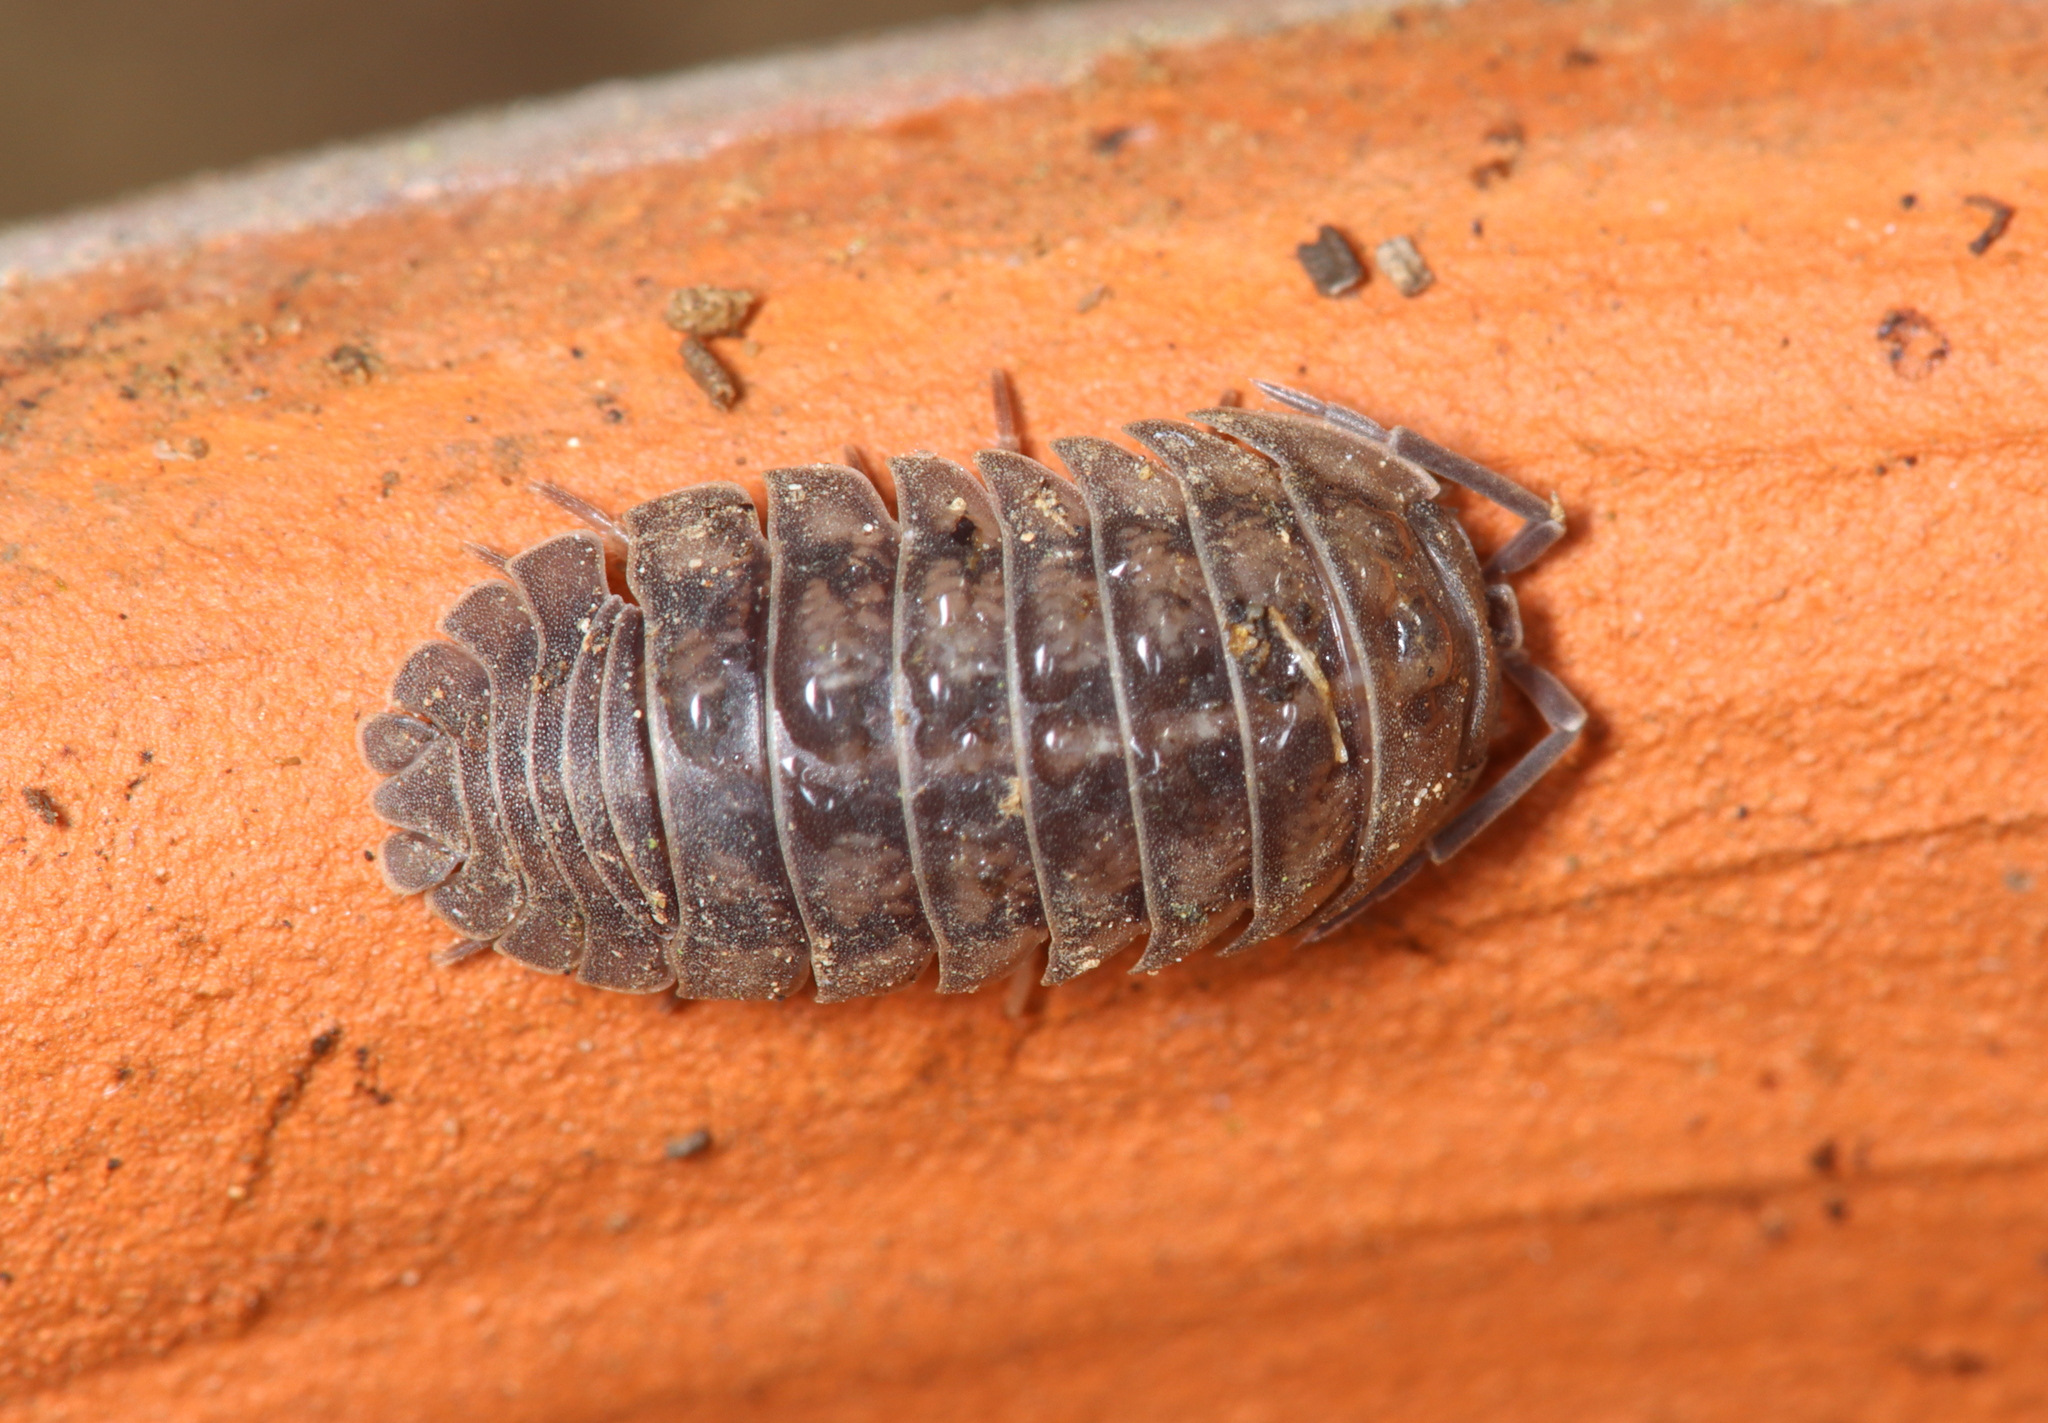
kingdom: Animalia
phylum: Arthropoda
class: Malacostraca
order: Isopoda
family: Armadillidiidae
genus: Armadillidium
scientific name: Armadillidium nasatum
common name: Isopod
